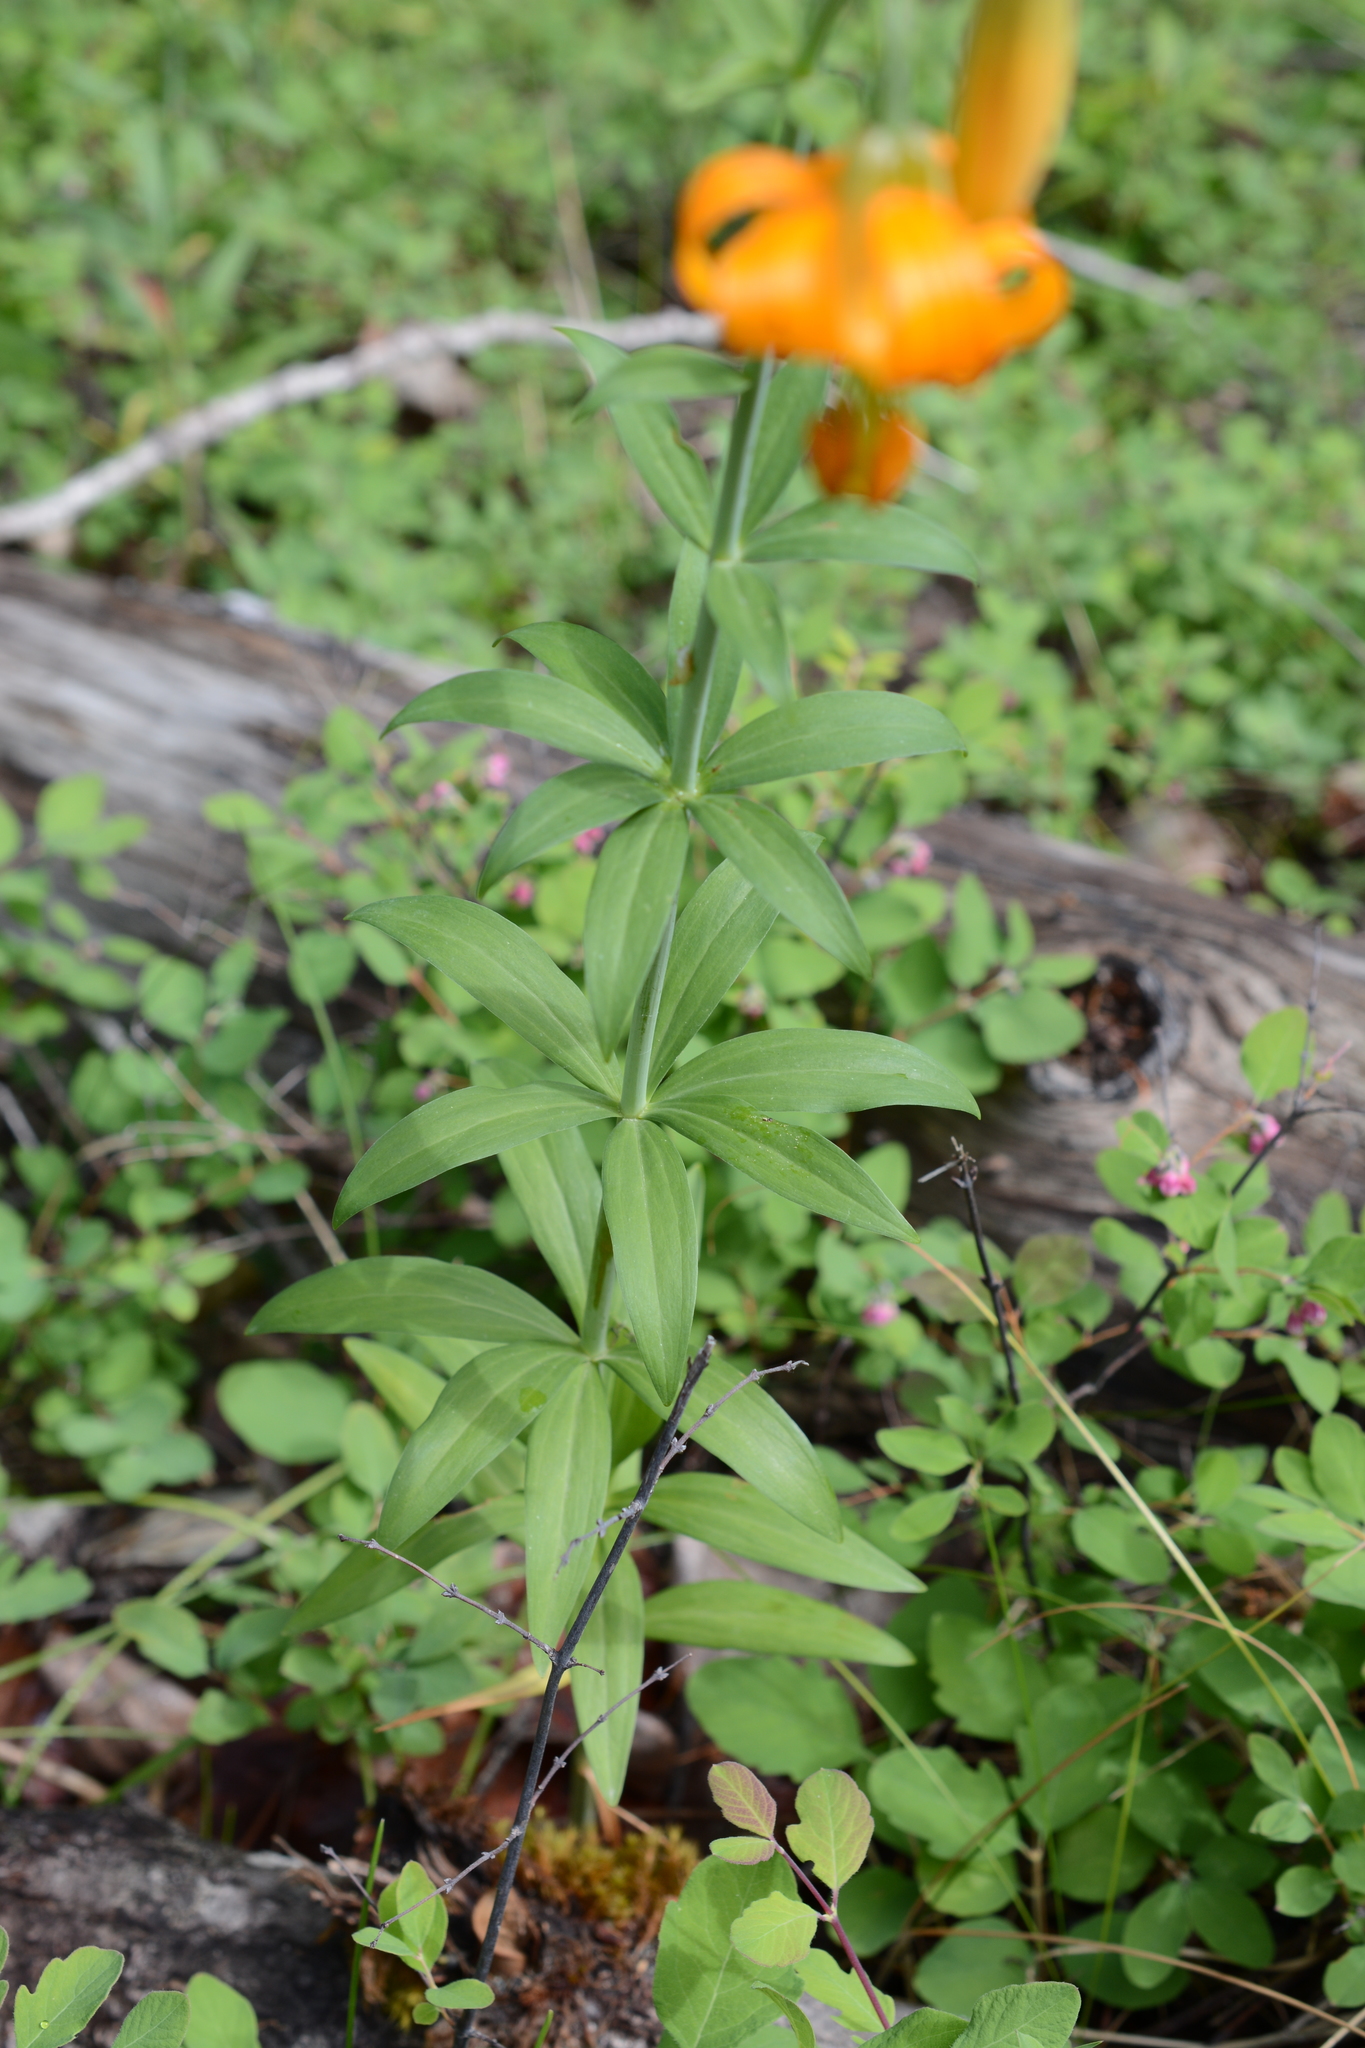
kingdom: Plantae
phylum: Tracheophyta
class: Liliopsida
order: Liliales
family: Liliaceae
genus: Lilium
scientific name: Lilium columbianum
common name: Columbia lily
